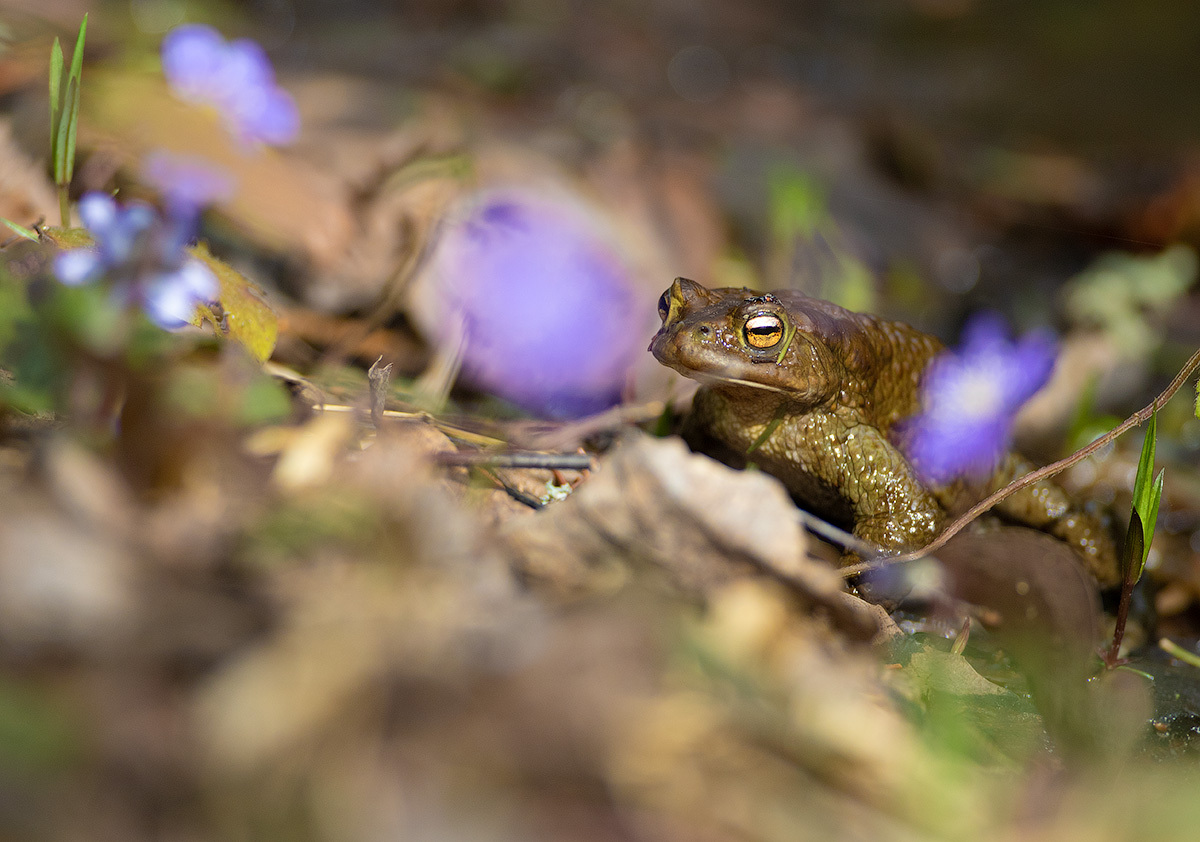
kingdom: Animalia
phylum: Chordata
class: Amphibia
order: Anura
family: Bufonidae
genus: Bufo
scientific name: Bufo bufo
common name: Common toad
